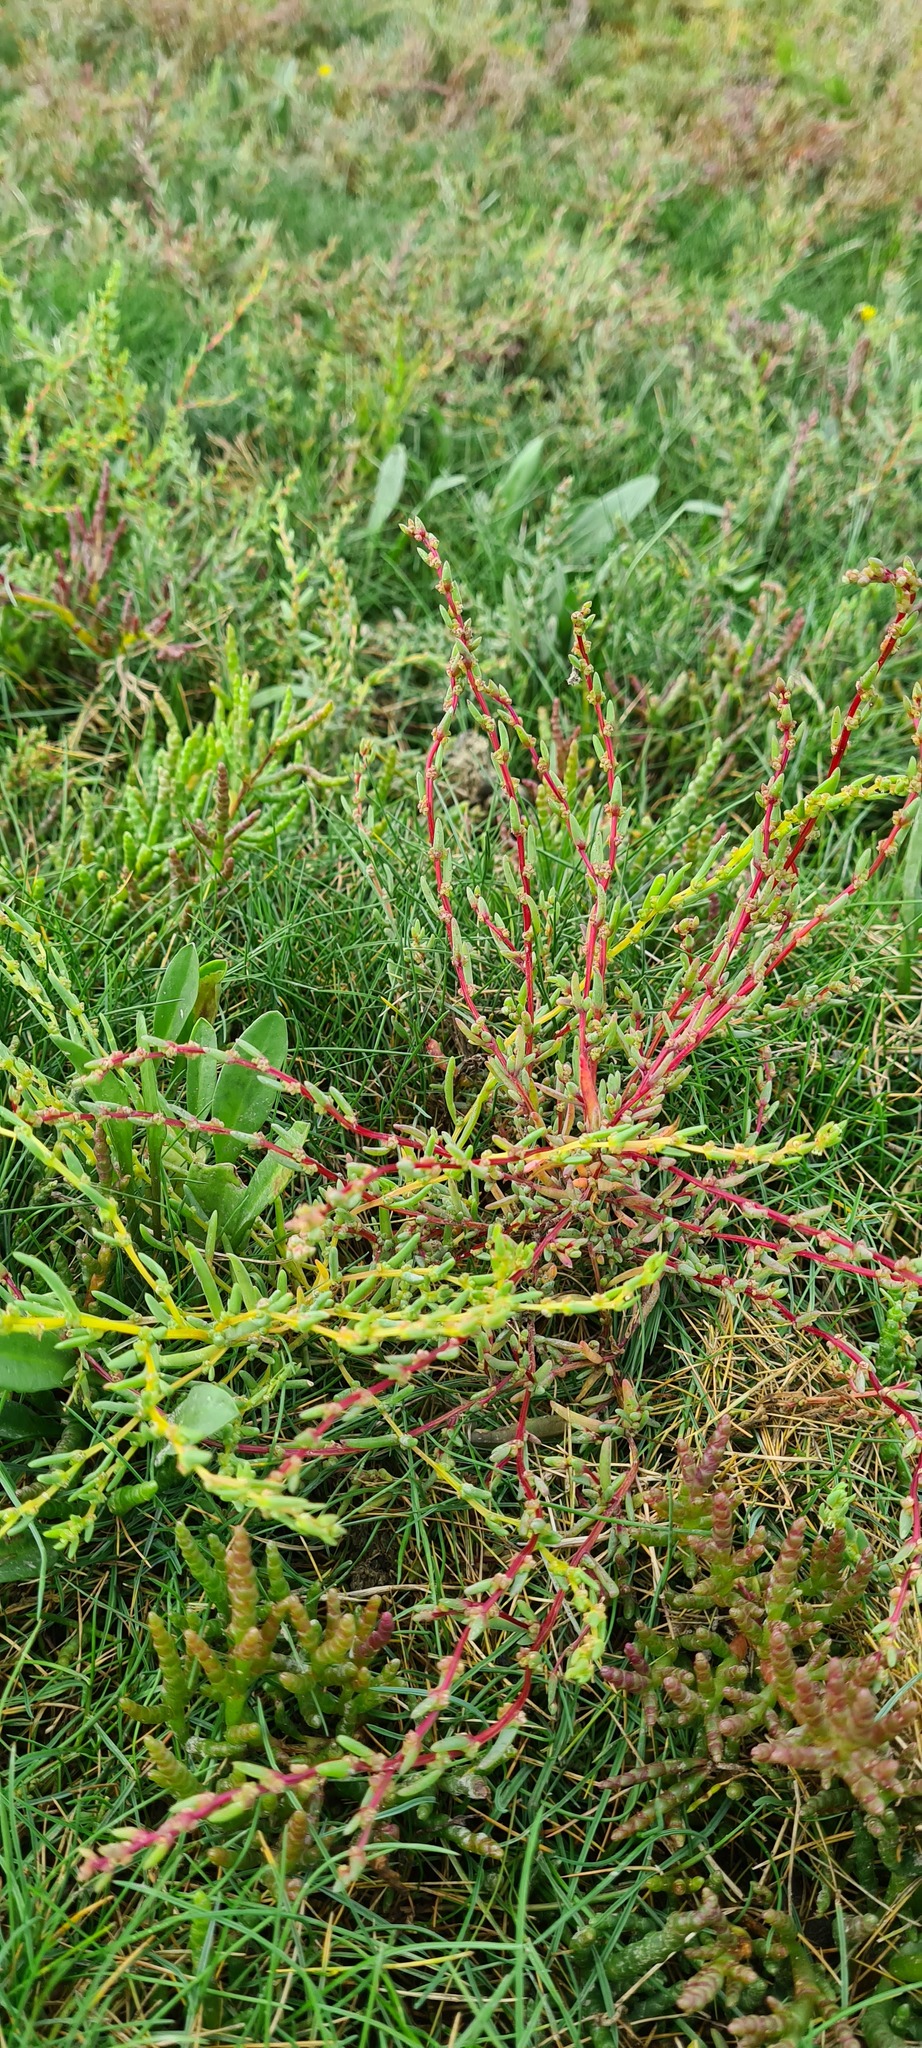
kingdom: Plantae
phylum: Tracheophyta
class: Magnoliopsida
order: Caryophyllales
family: Amaranthaceae
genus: Suaeda
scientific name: Suaeda maritima
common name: Annual sea-blite
